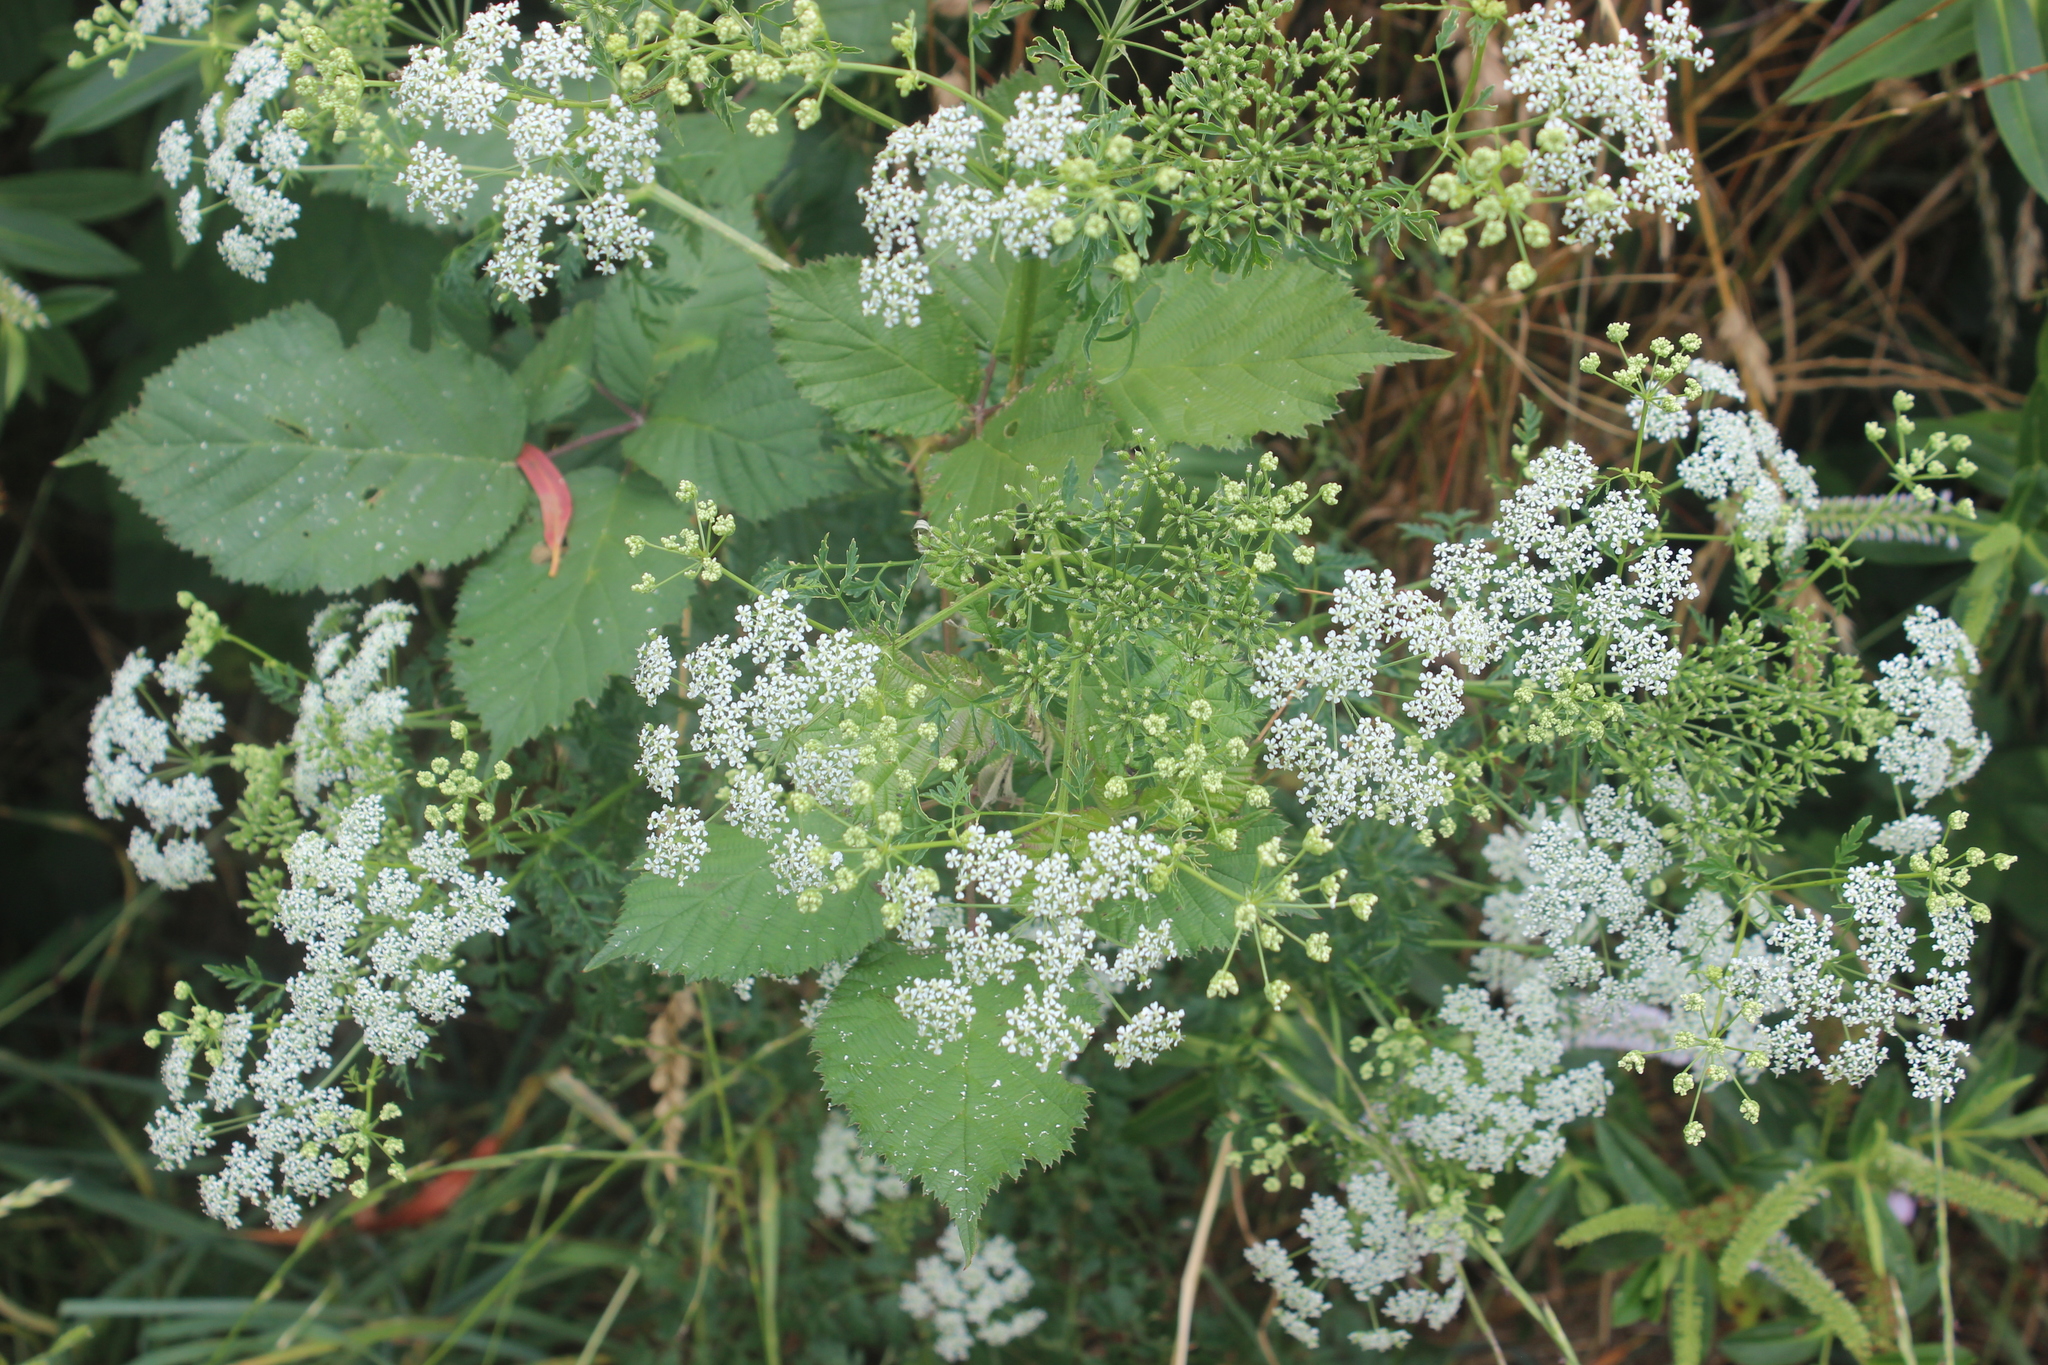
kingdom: Plantae
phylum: Tracheophyta
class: Magnoliopsida
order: Apiales
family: Apiaceae
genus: Conium
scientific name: Conium maculatum
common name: Hemlock
